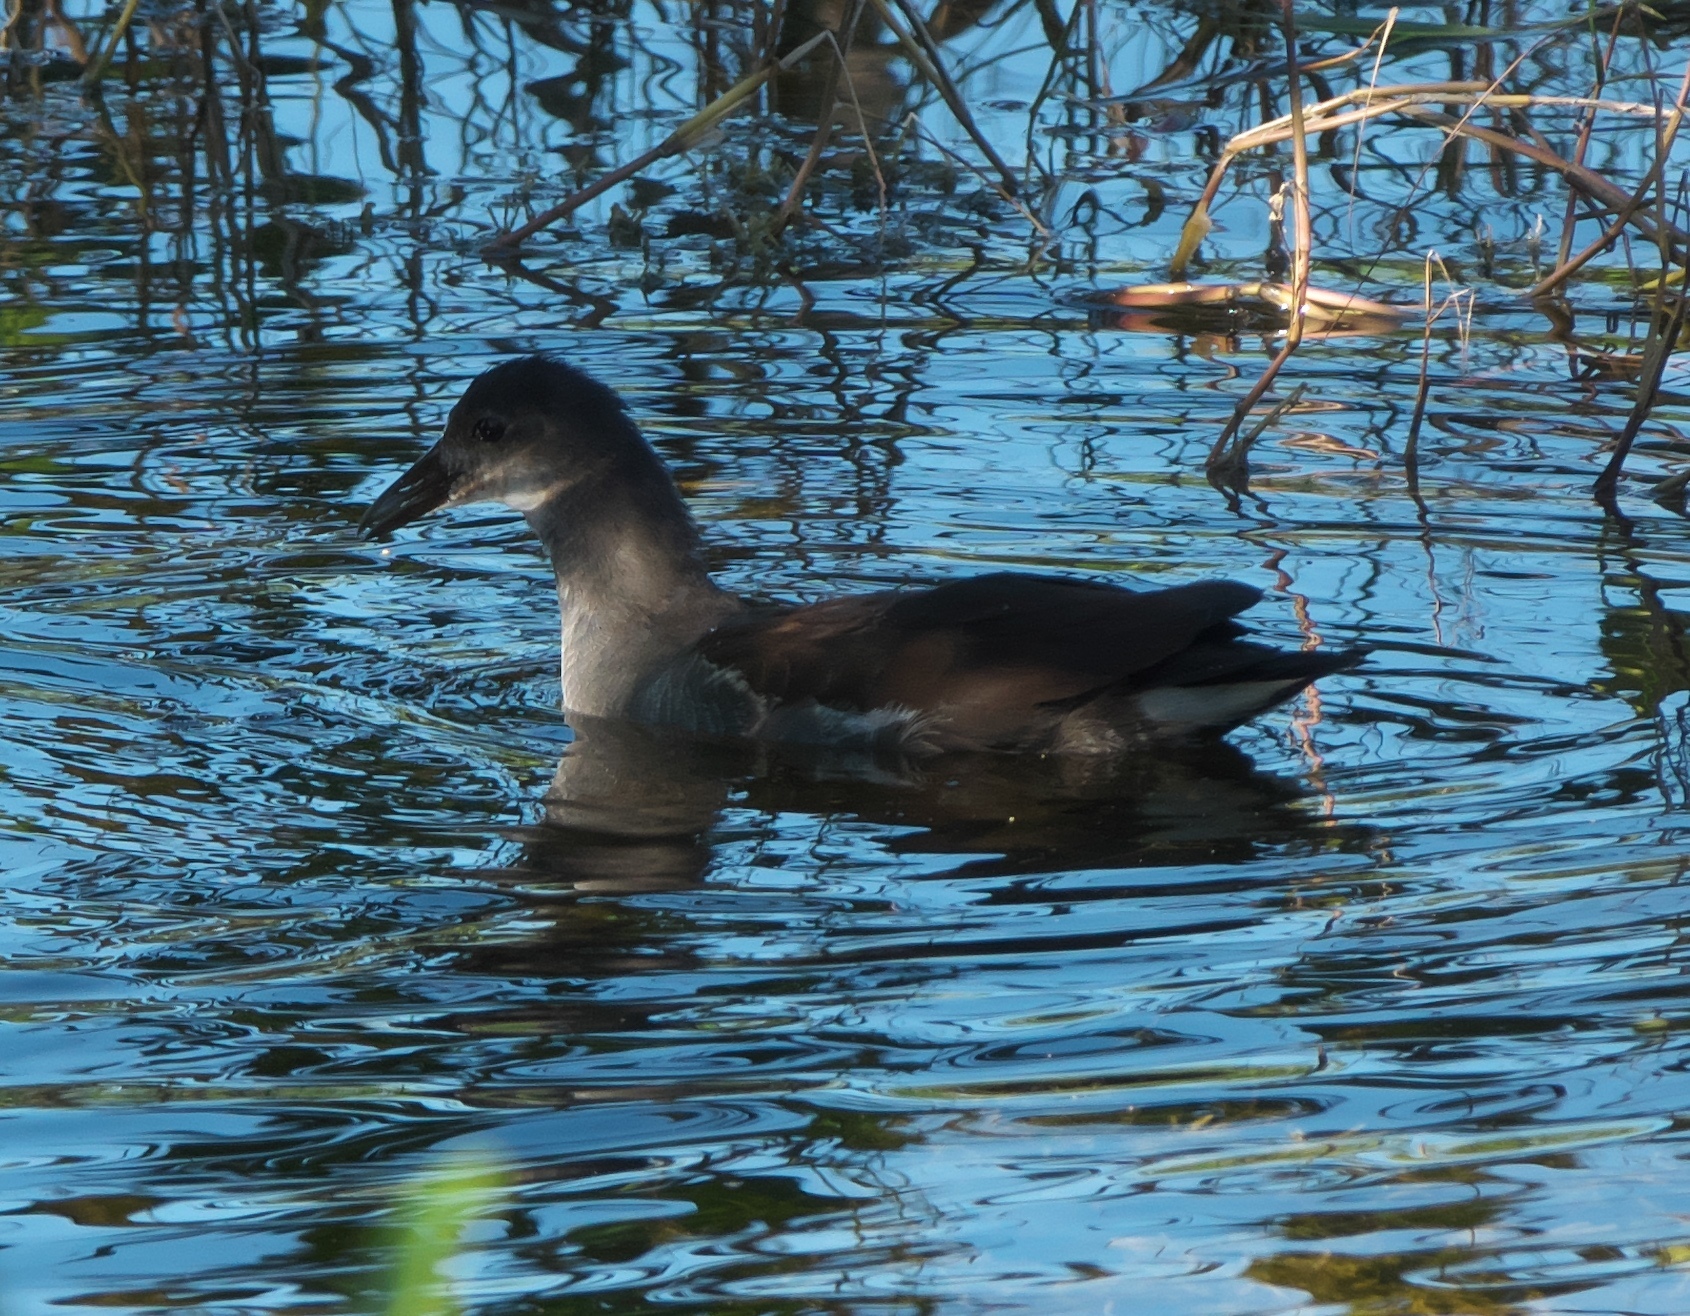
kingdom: Animalia
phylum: Chordata
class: Aves
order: Gruiformes
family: Rallidae
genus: Gallinula
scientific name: Gallinula chloropus
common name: Common moorhen
